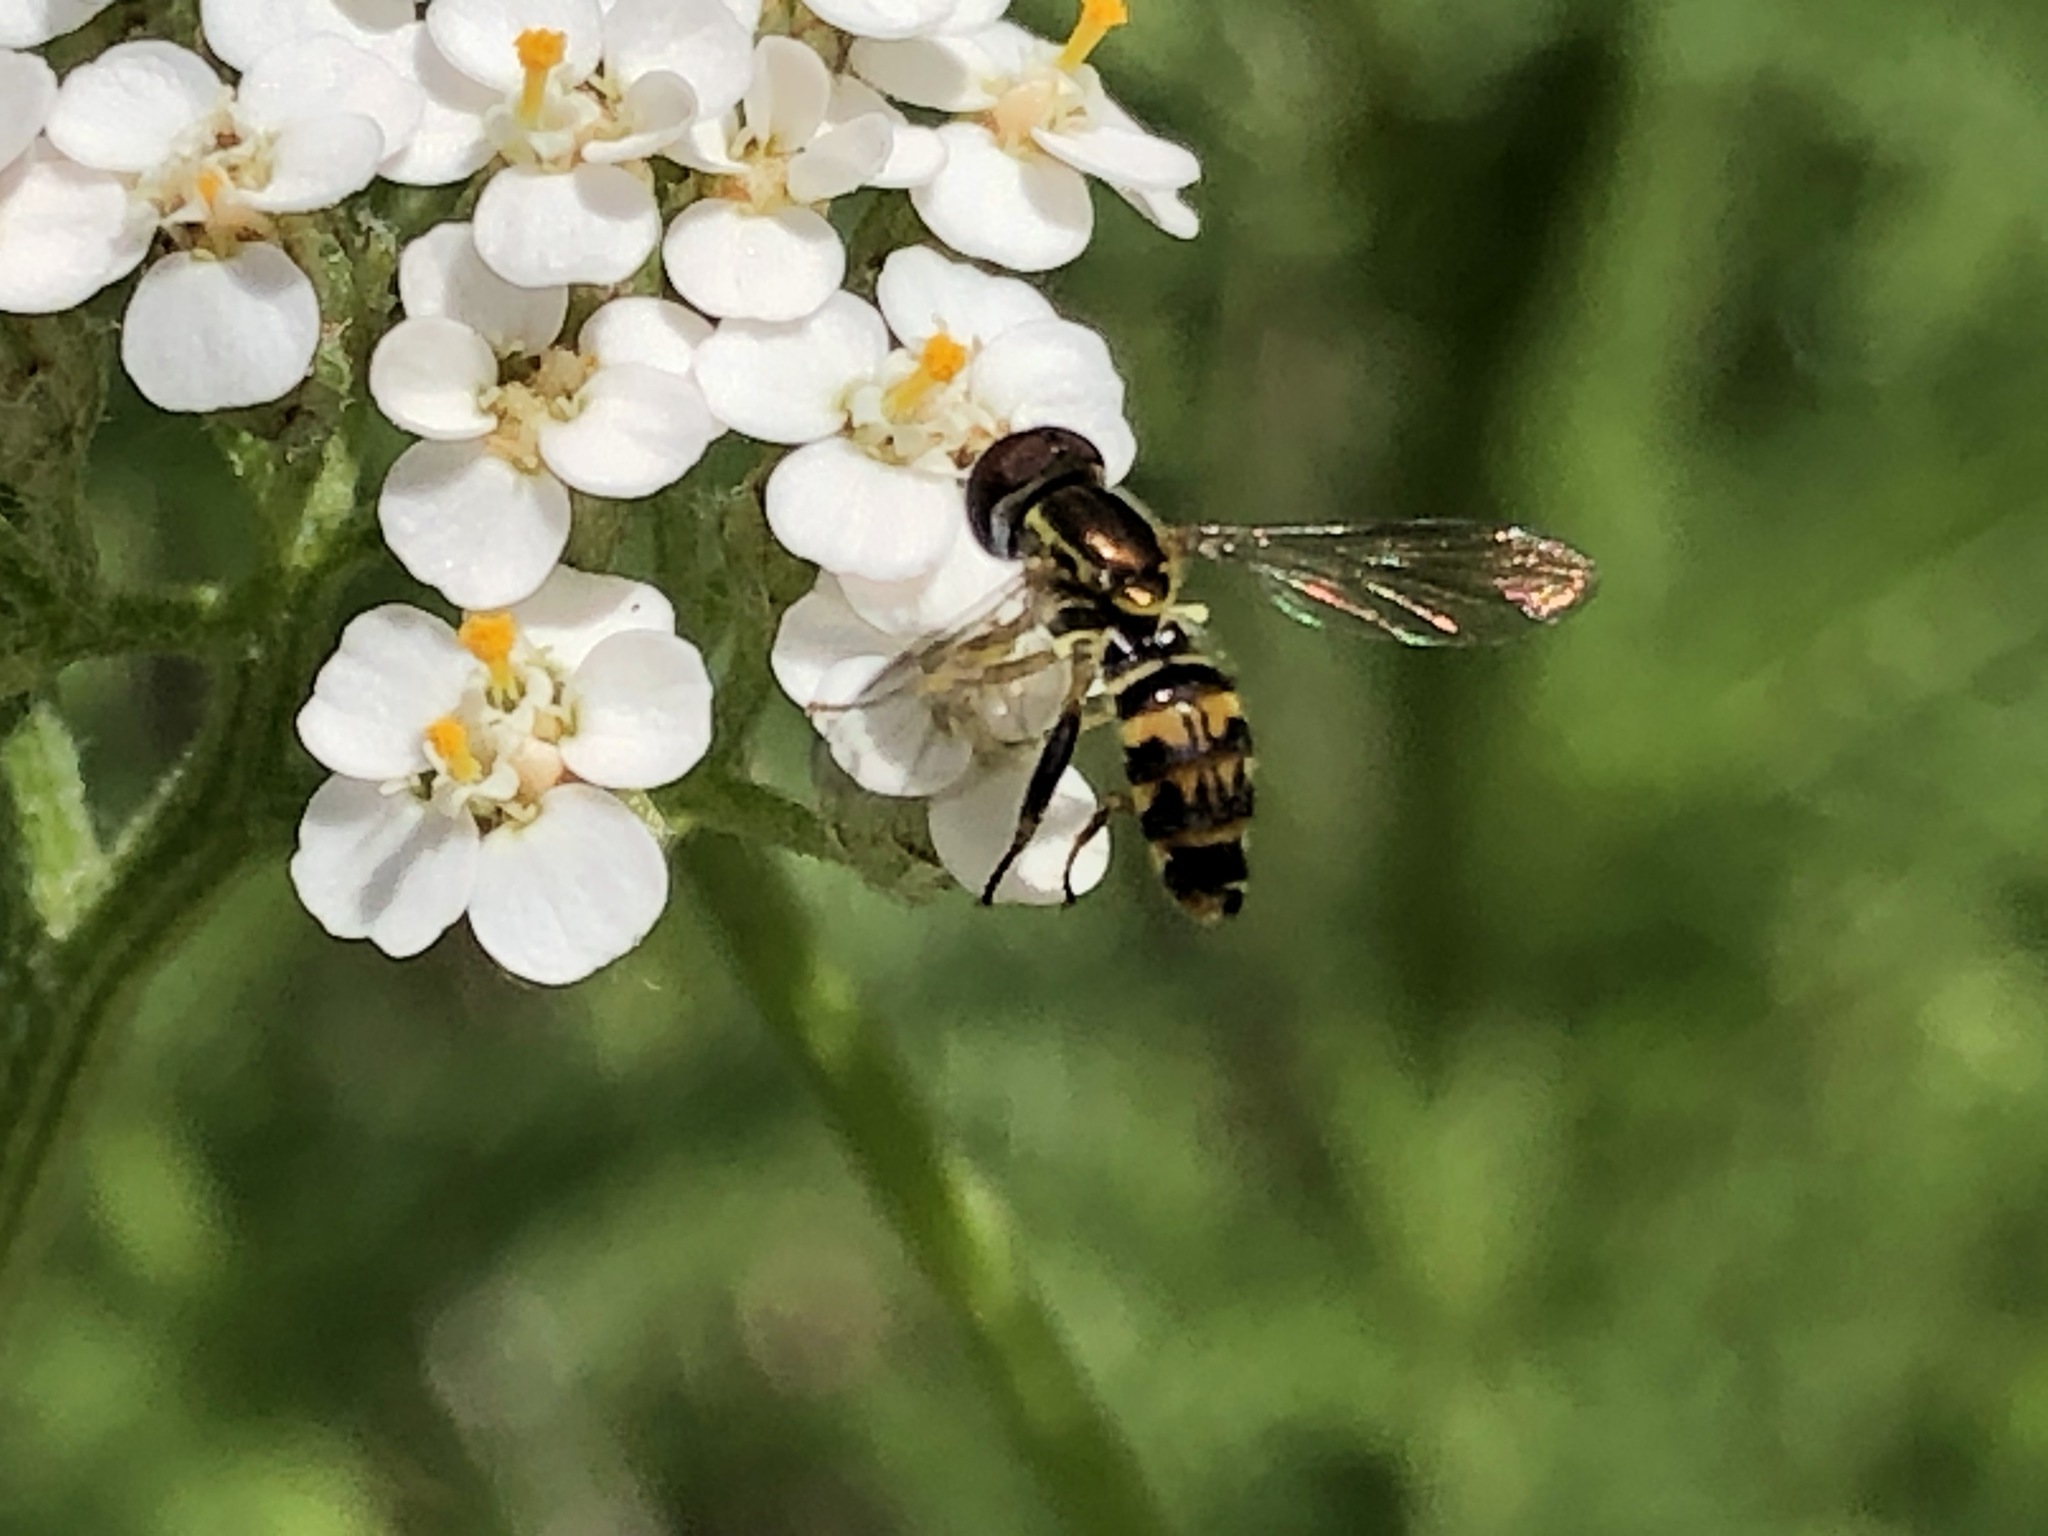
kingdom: Animalia
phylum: Arthropoda
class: Insecta
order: Diptera
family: Syrphidae
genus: Toxomerus
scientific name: Toxomerus occidentalis
